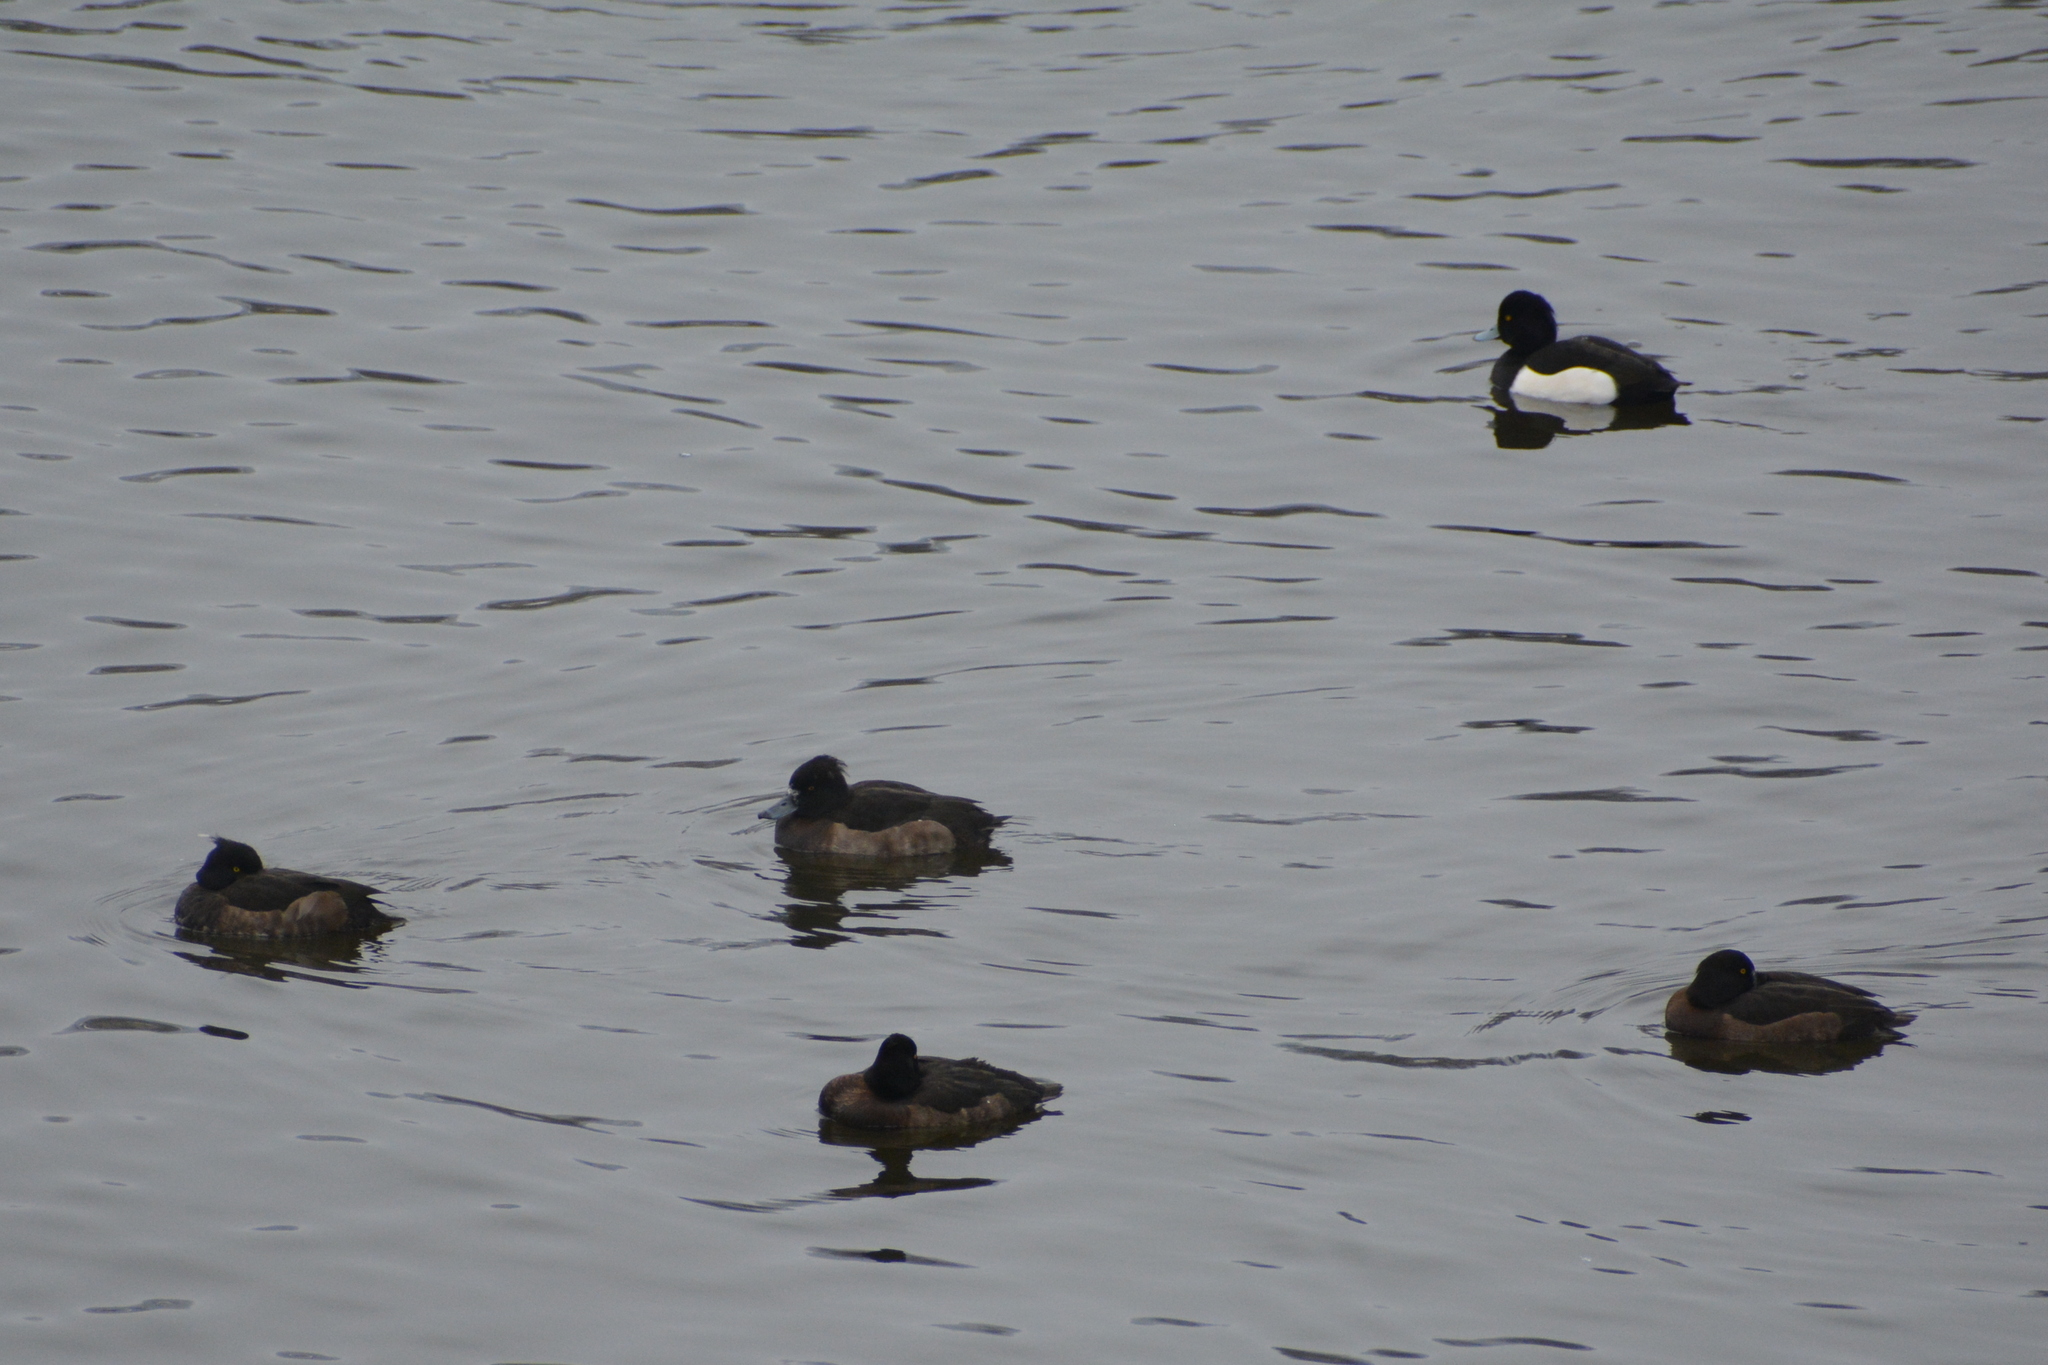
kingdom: Animalia
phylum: Chordata
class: Aves
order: Anseriformes
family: Anatidae
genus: Aythya
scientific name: Aythya fuligula
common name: Tufted duck
